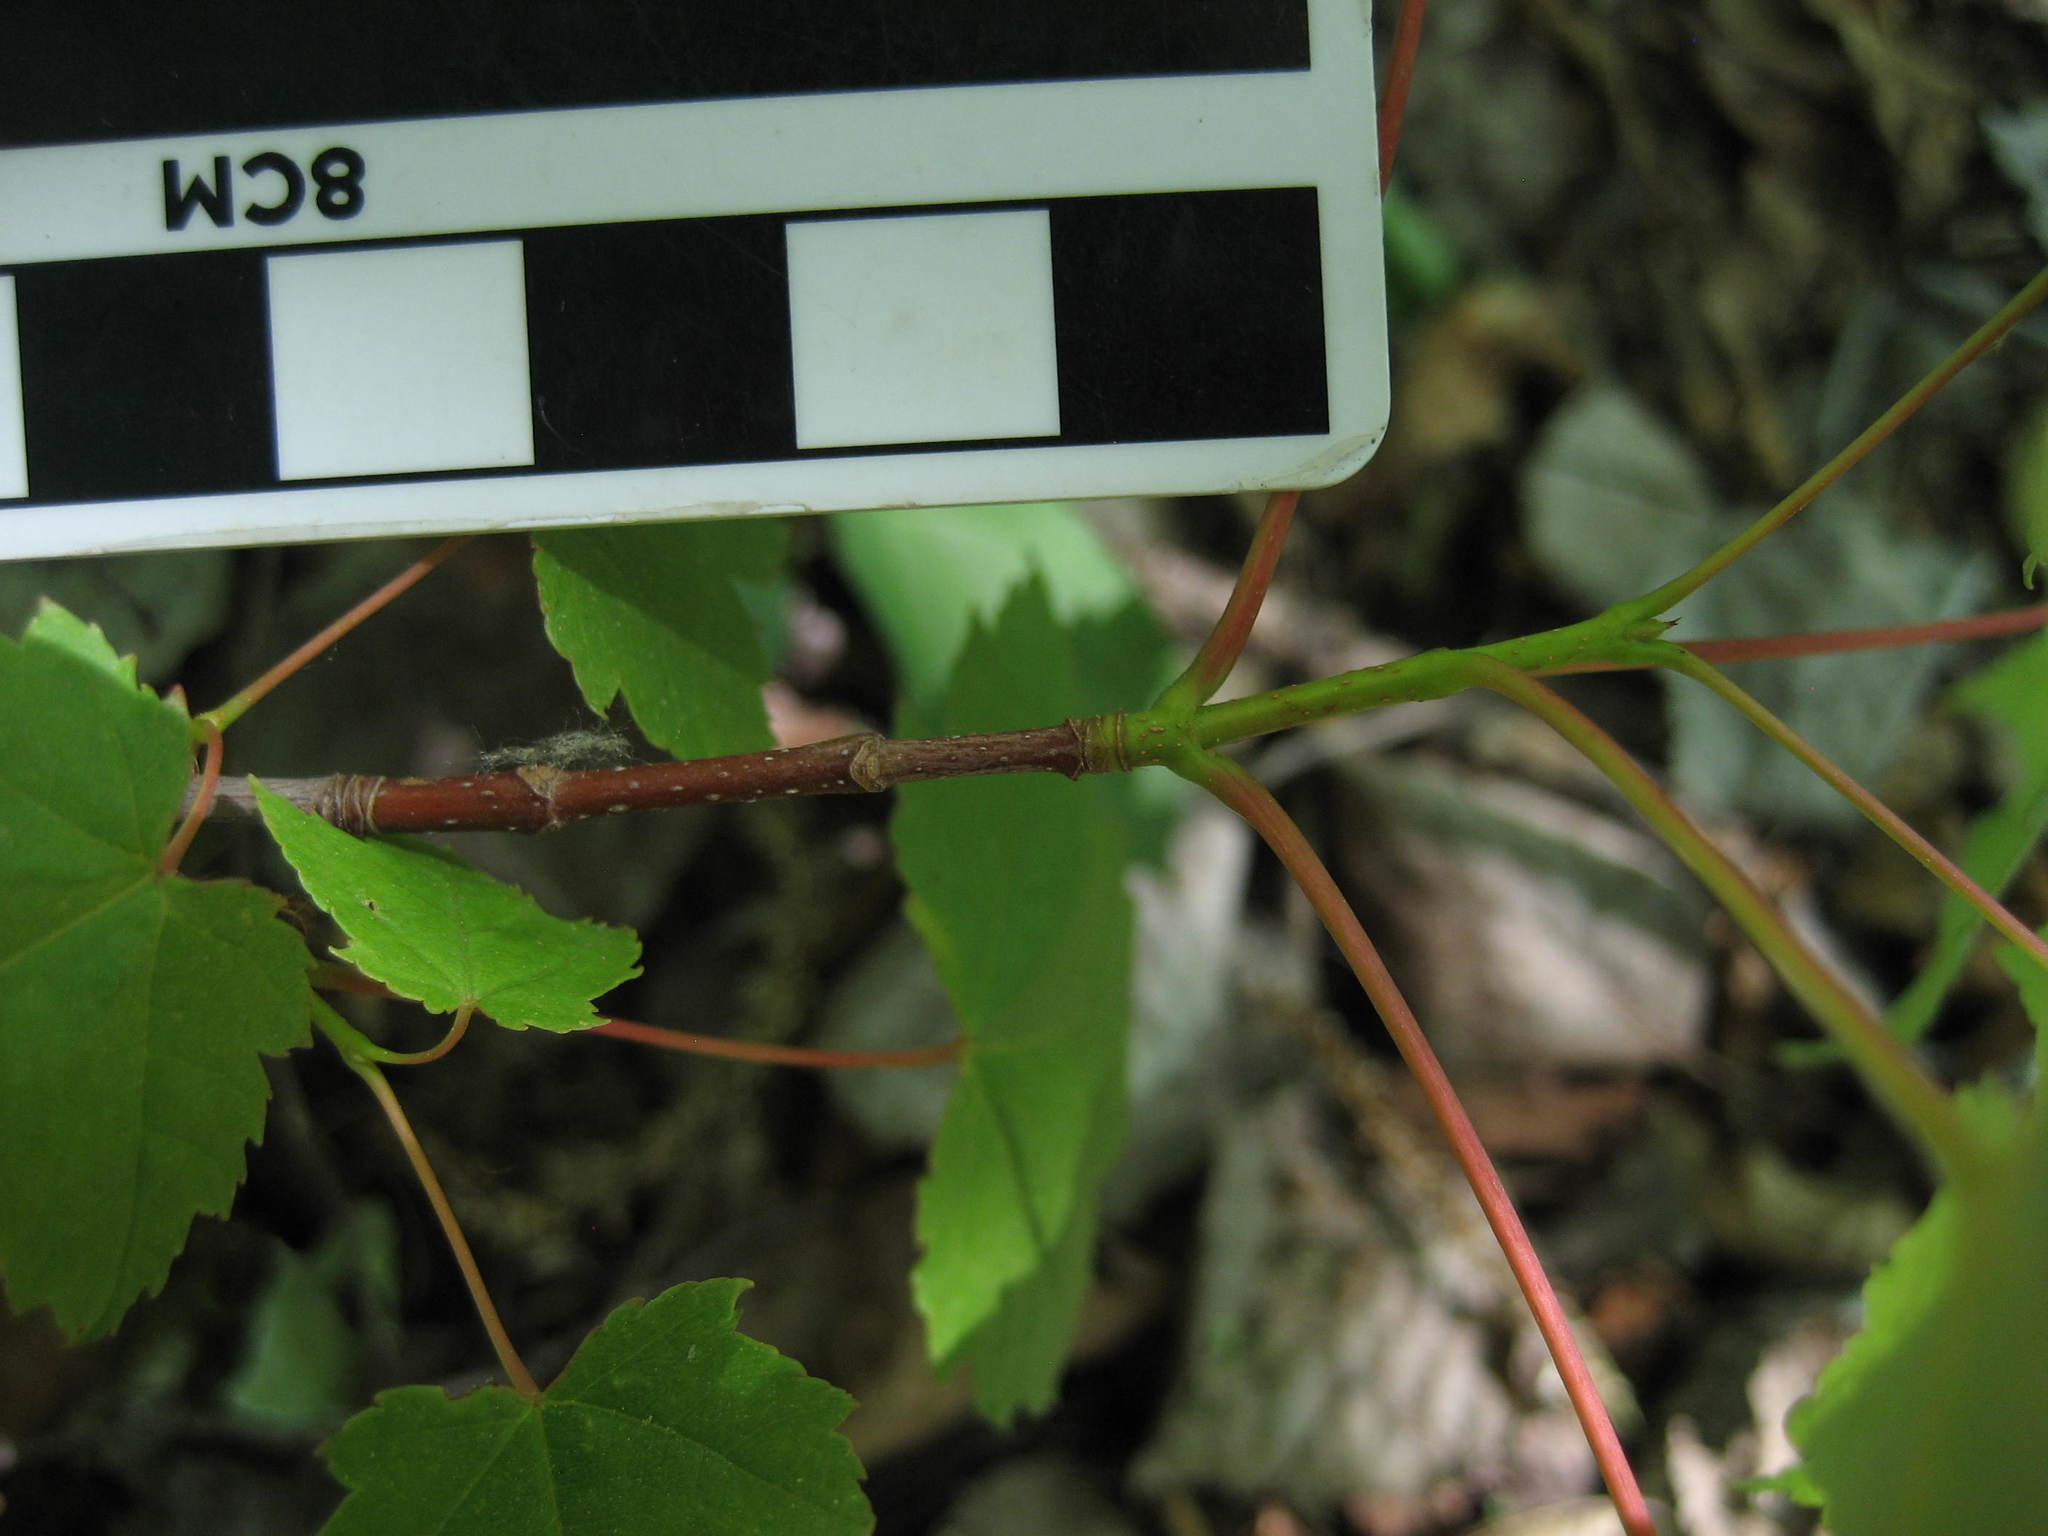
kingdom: Plantae
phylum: Tracheophyta
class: Magnoliopsida
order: Sapindales
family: Sapindaceae
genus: Acer
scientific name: Acer rubrum
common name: Red maple
